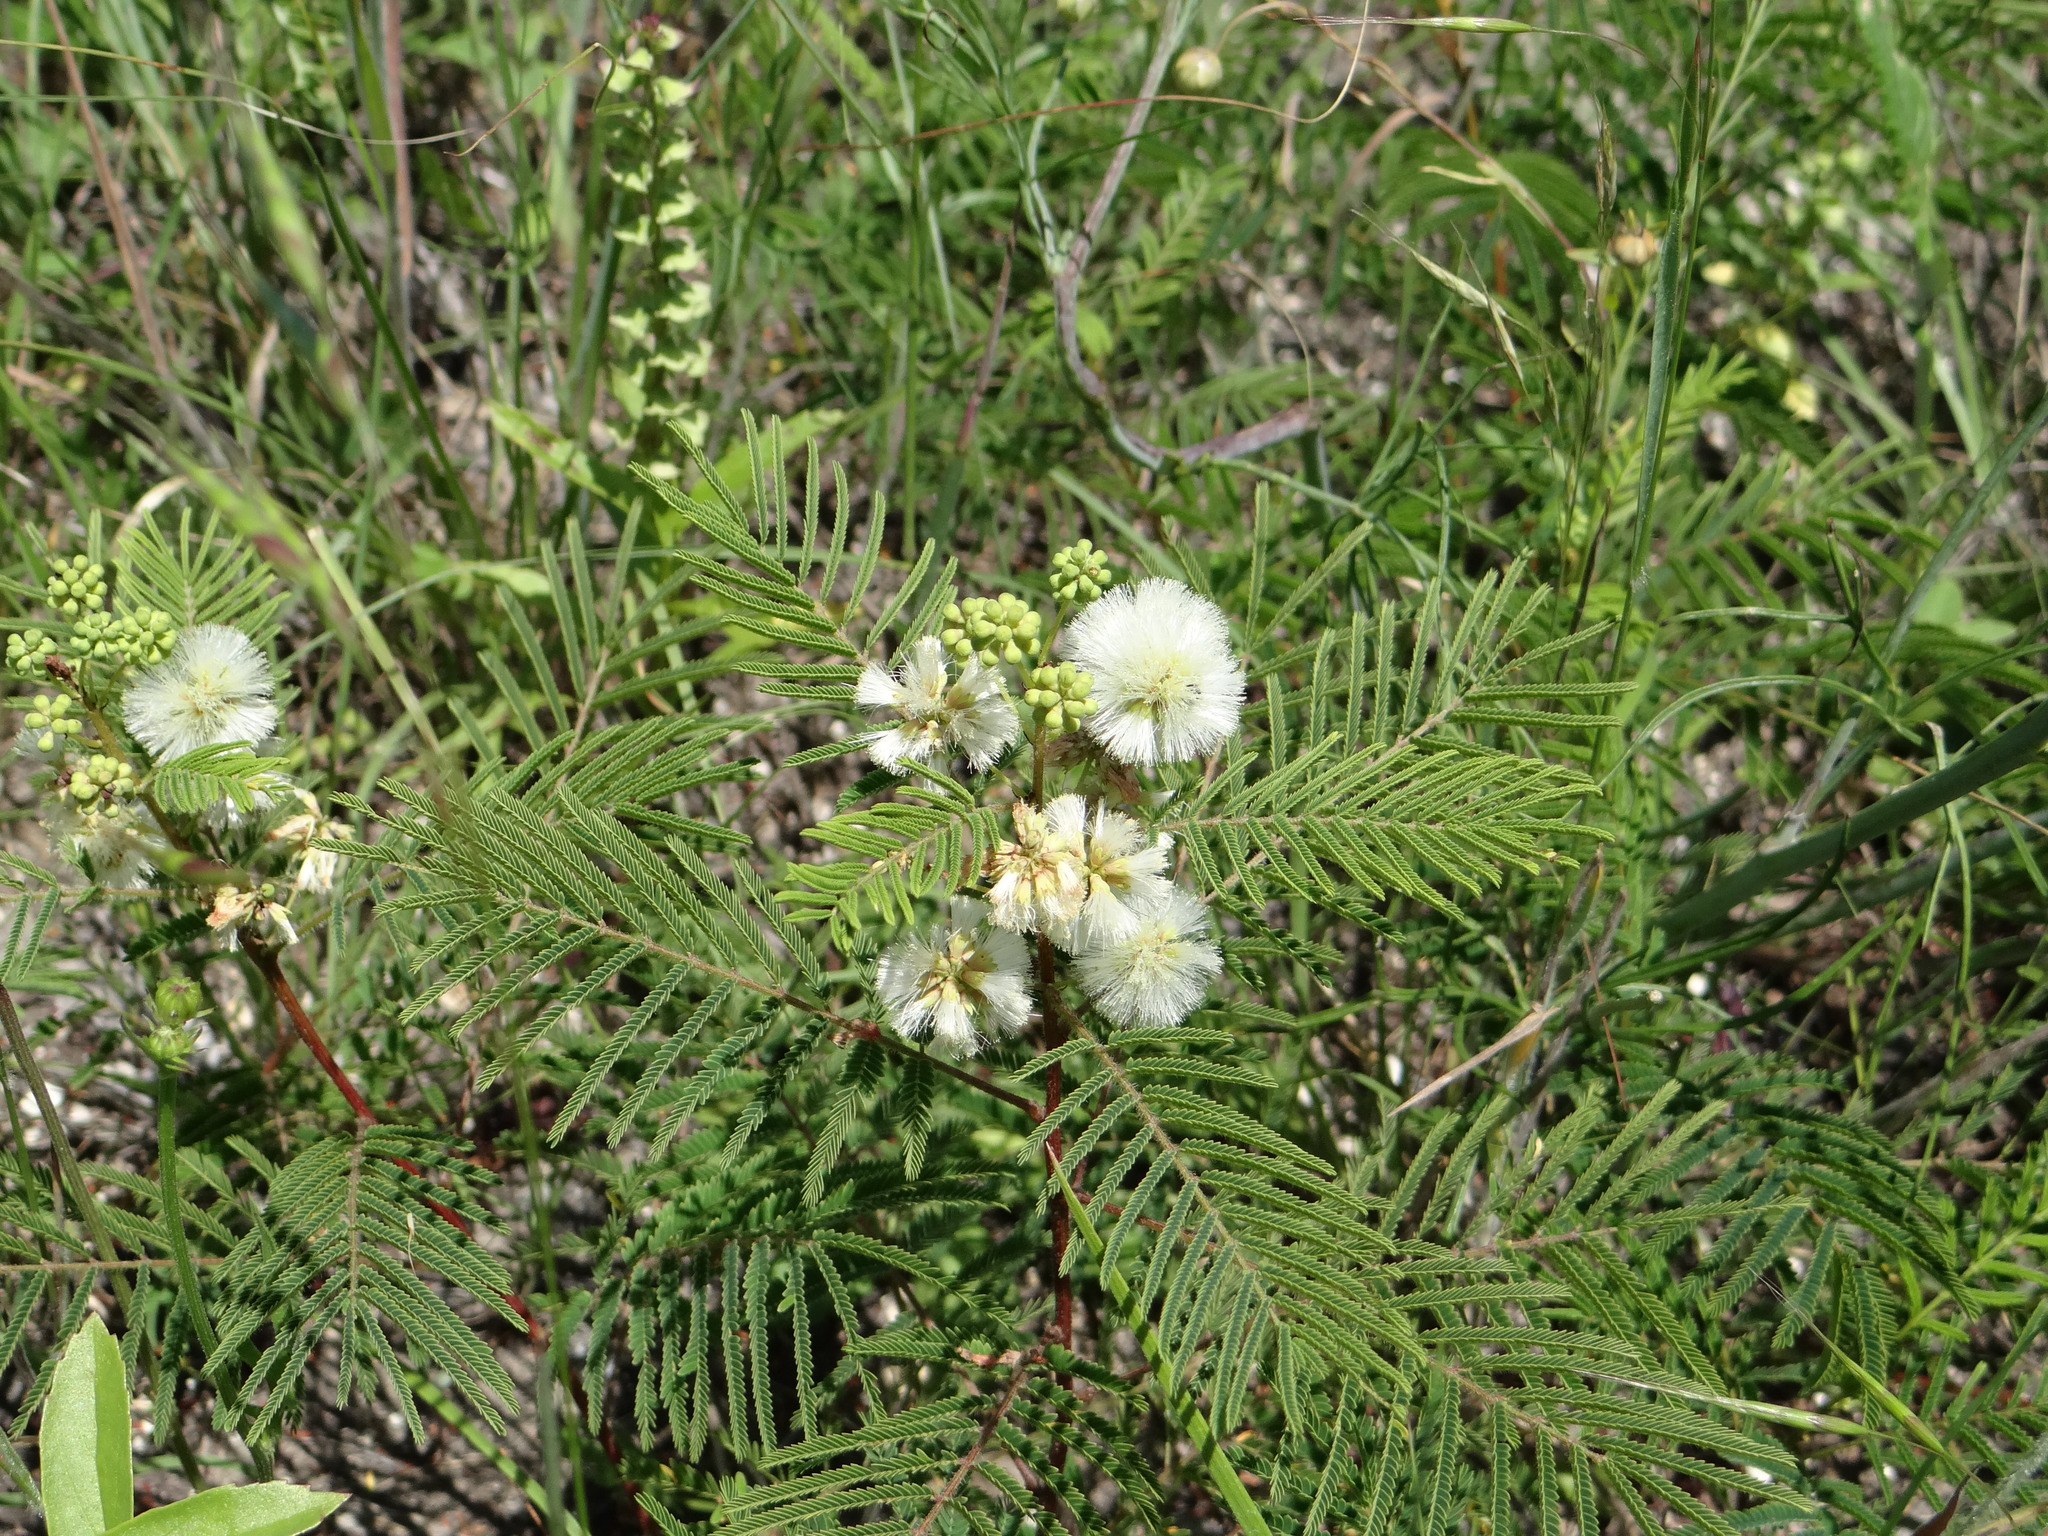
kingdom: Plantae
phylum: Tracheophyta
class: Magnoliopsida
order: Fabales
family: Fabaceae
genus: Acaciella
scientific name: Acaciella angustissima
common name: Prairie acacia
